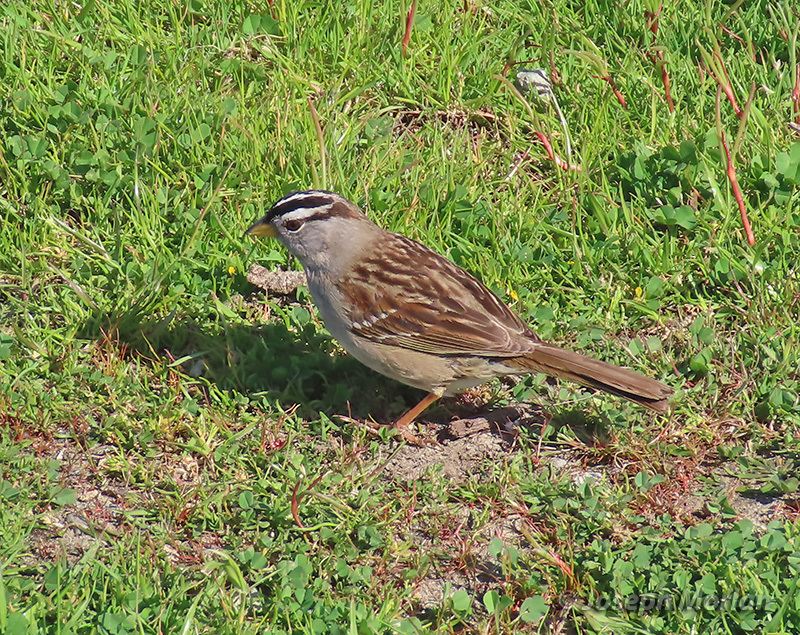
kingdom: Animalia
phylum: Chordata
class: Aves
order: Passeriformes
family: Passerellidae
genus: Zonotrichia
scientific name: Zonotrichia leucophrys
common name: White-crowned sparrow
